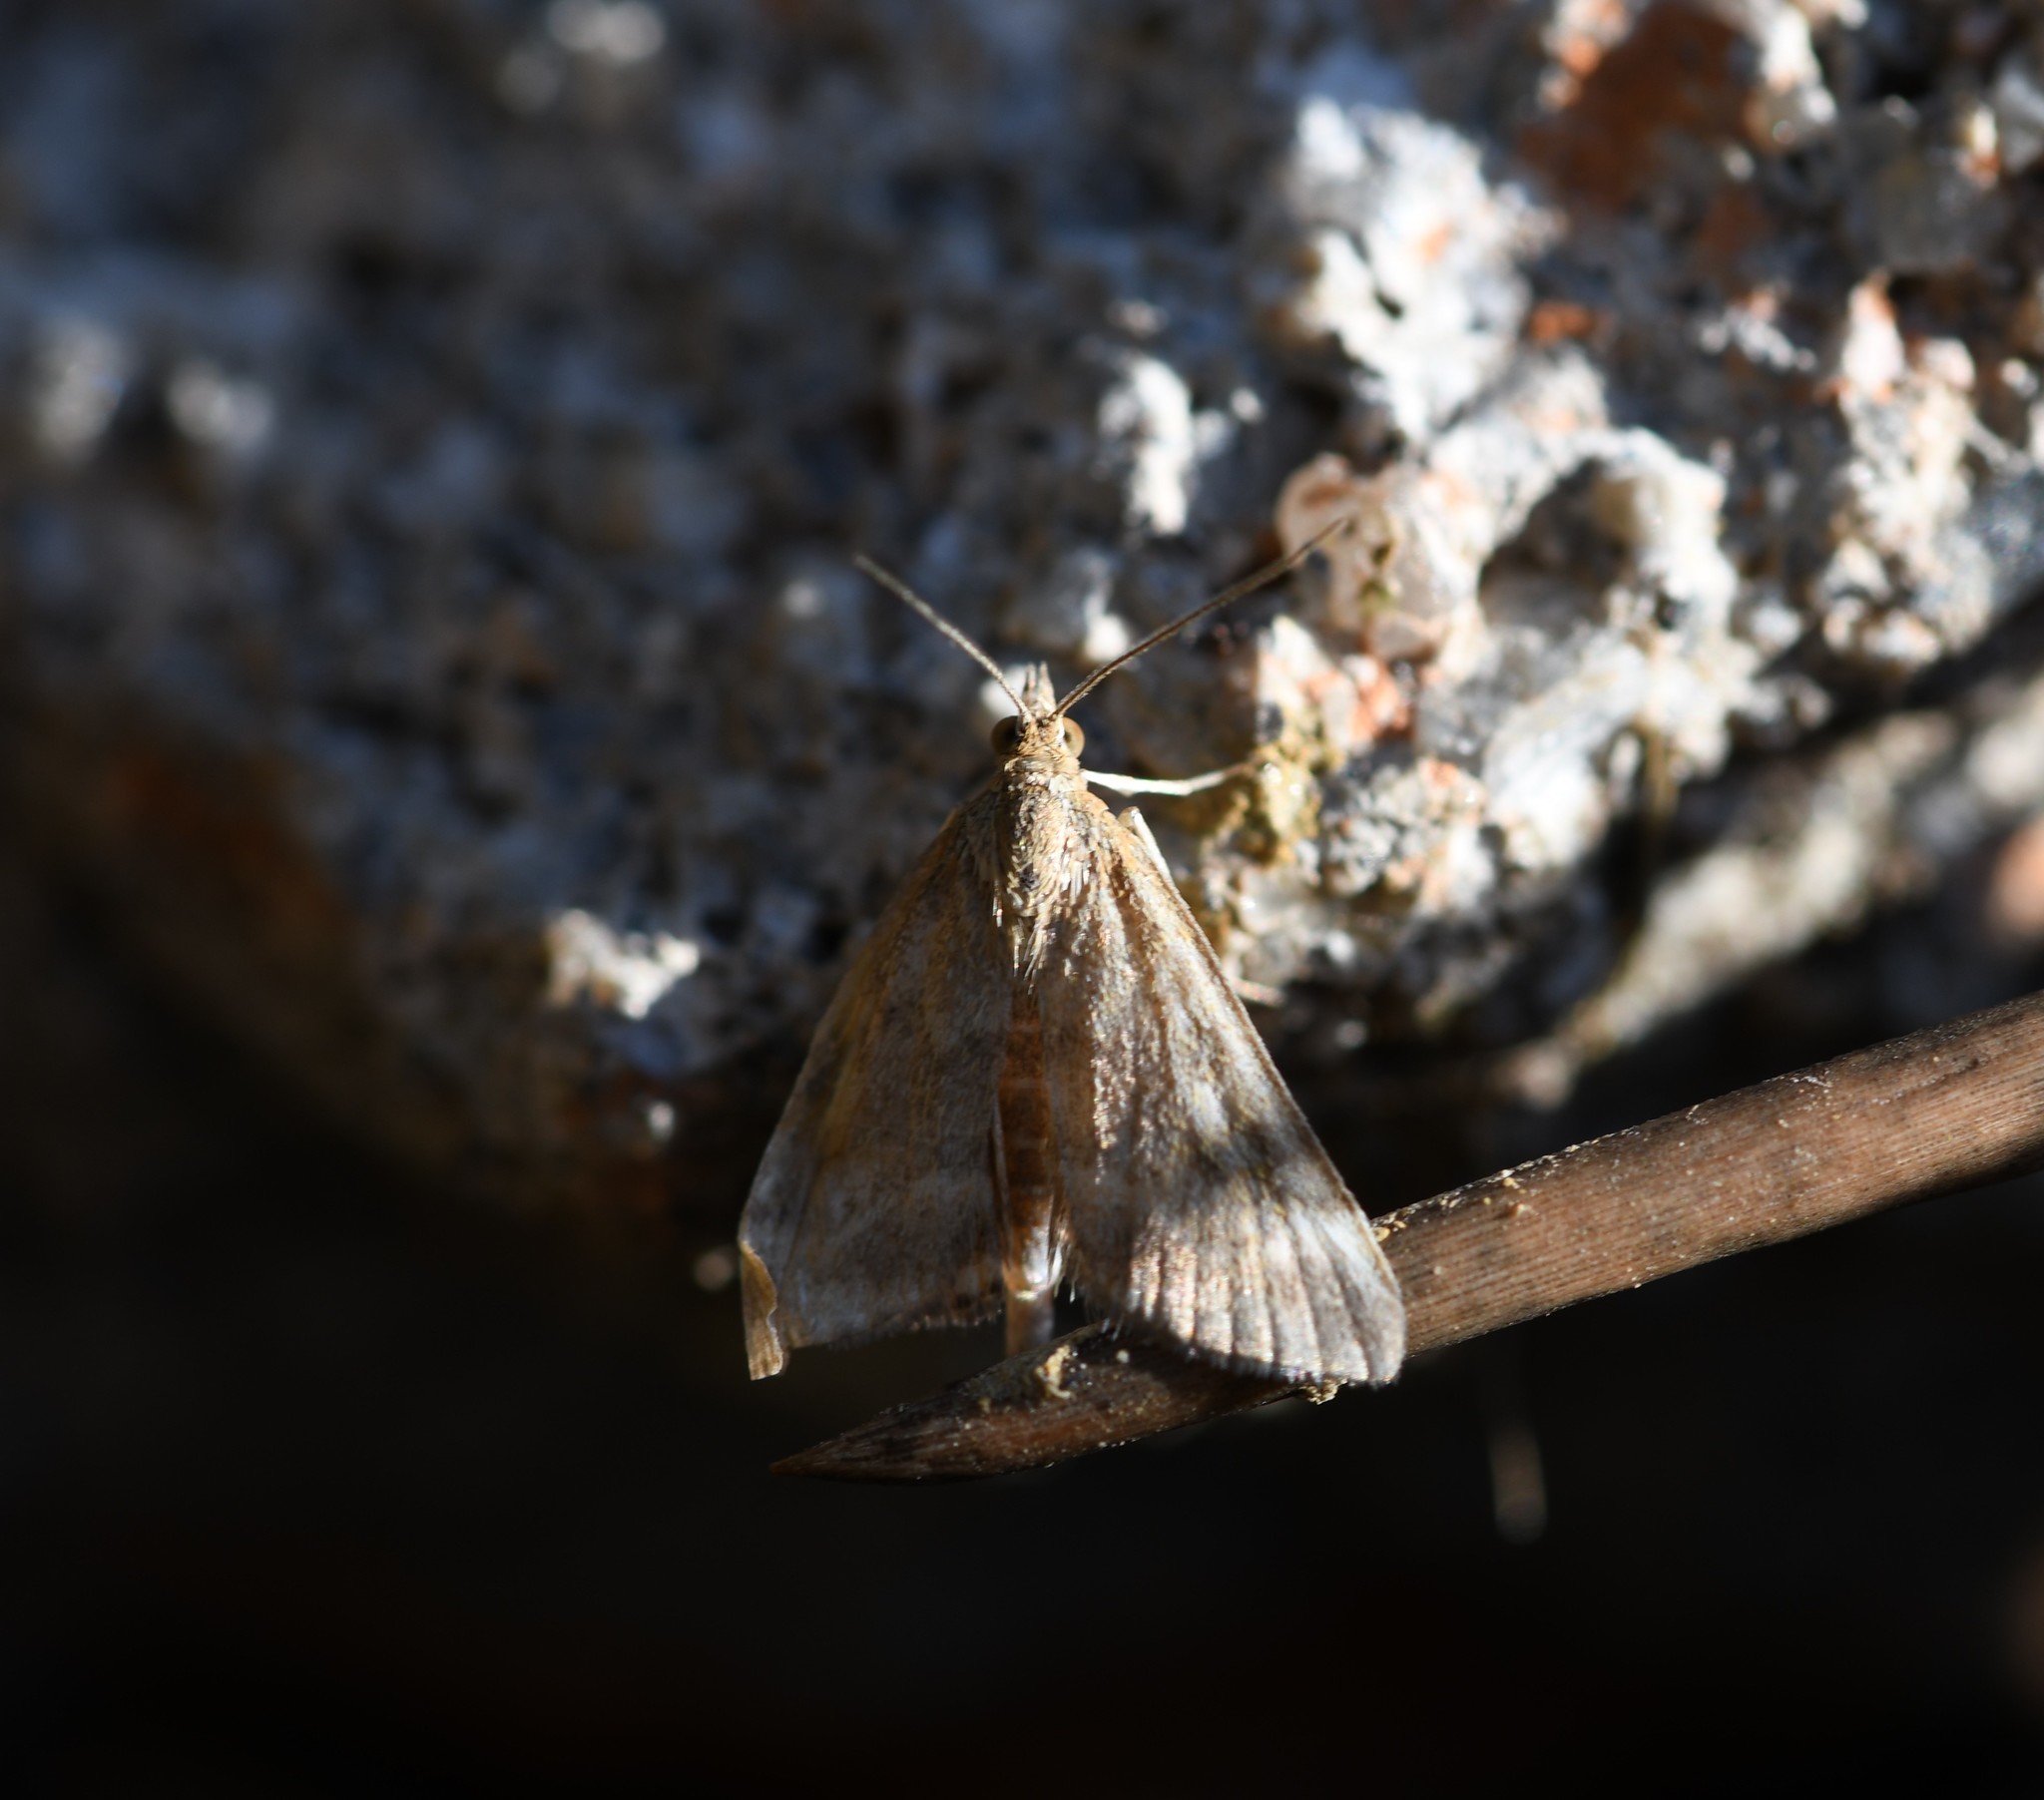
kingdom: Animalia
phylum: Arthropoda
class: Insecta
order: Lepidoptera
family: Crambidae
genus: Pyrausta
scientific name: Pyrausta despicata
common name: Straw-barred pearl
